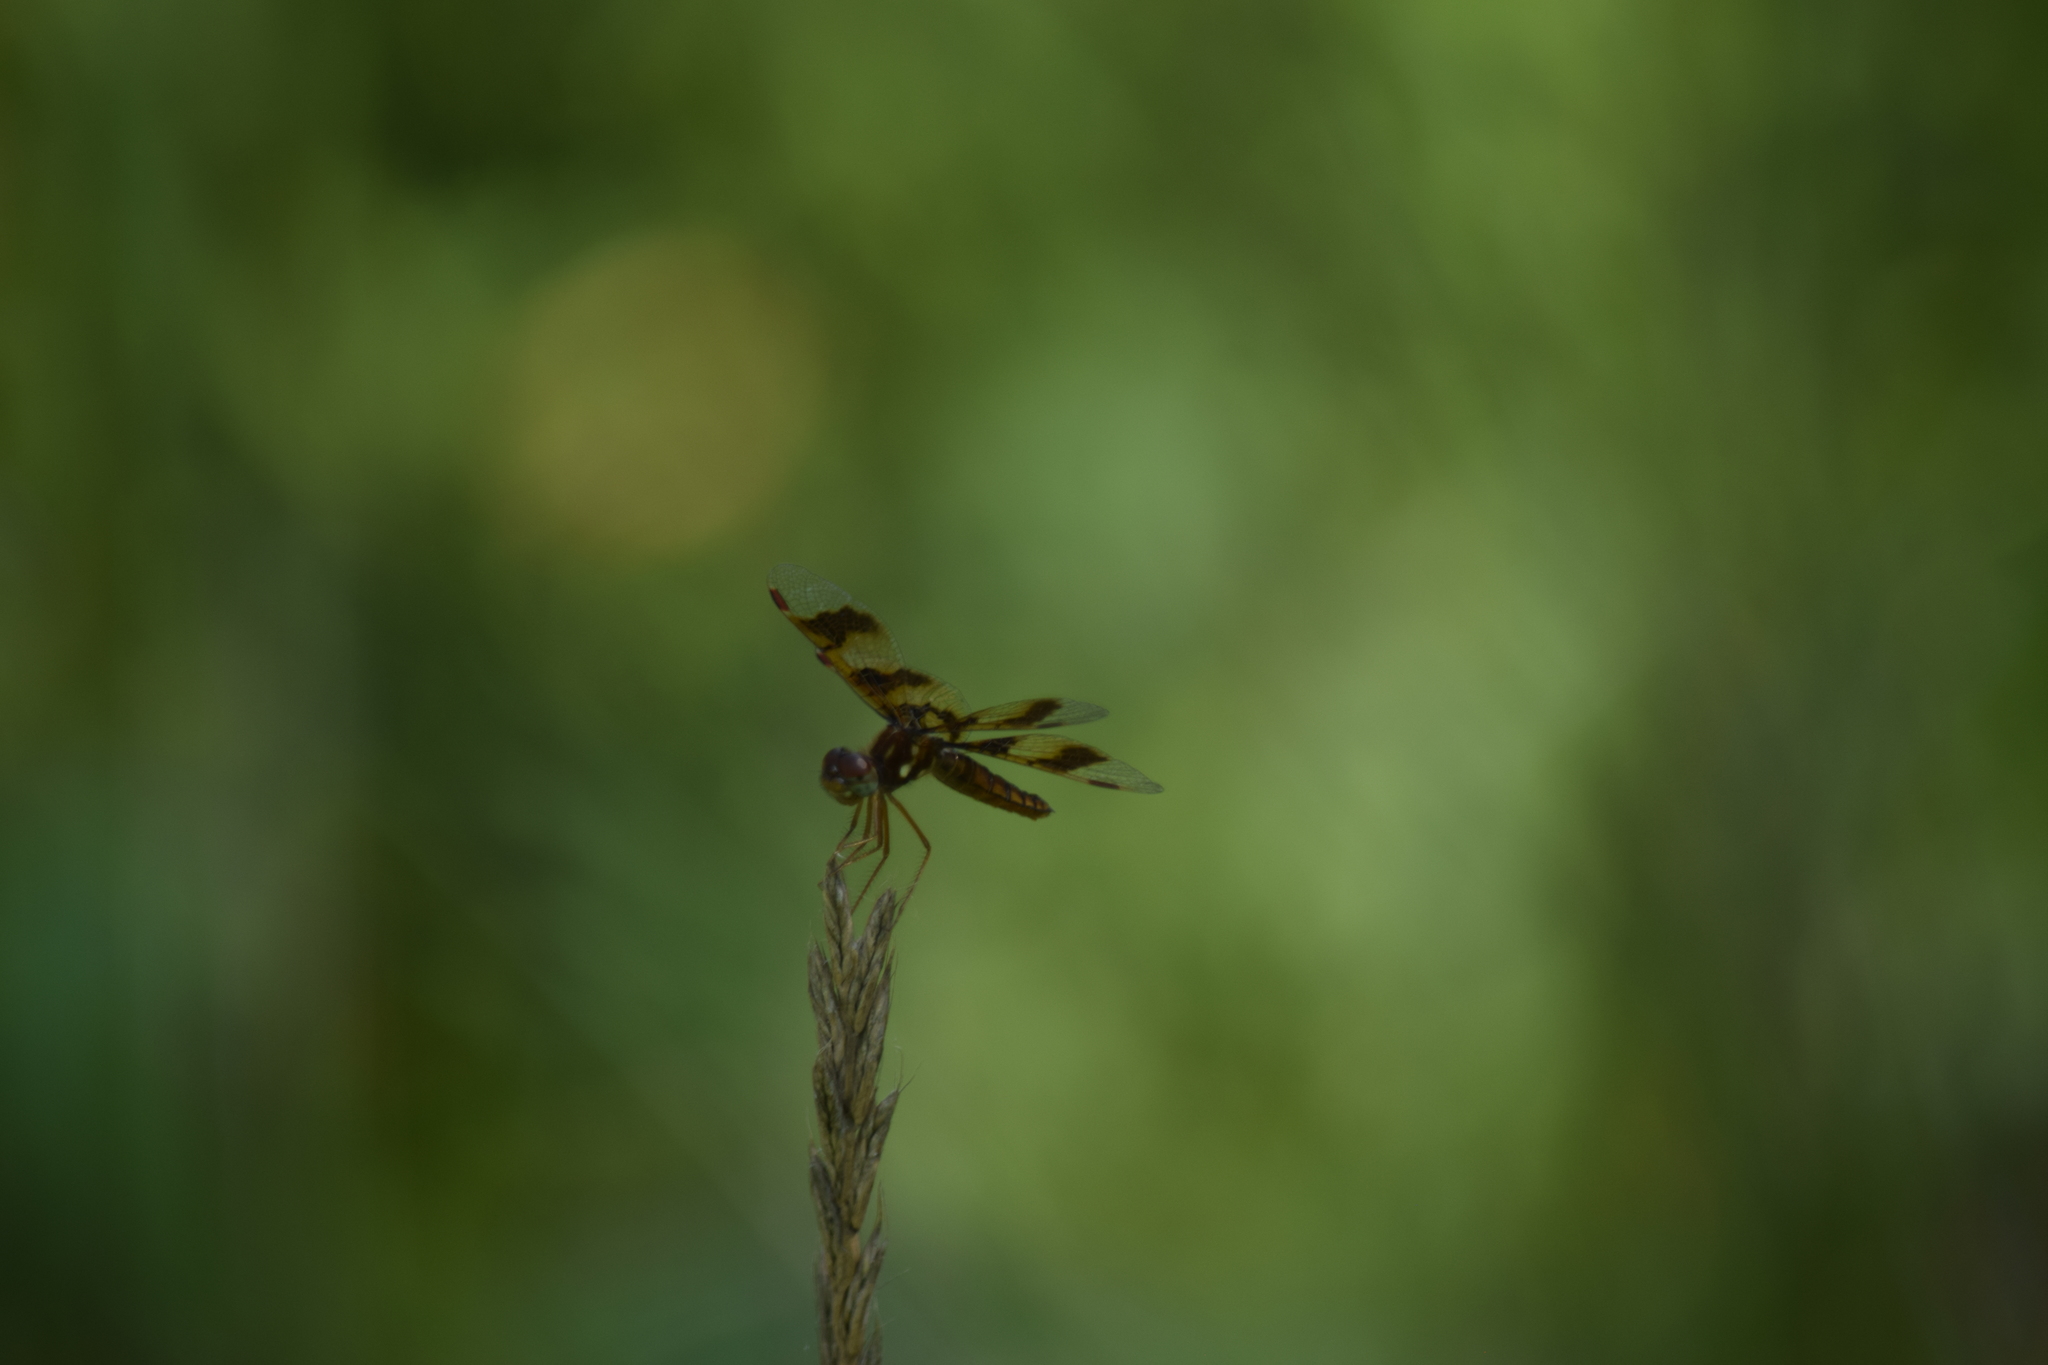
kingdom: Animalia
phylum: Arthropoda
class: Insecta
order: Odonata
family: Libellulidae
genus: Perithemis
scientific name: Perithemis tenera
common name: Eastern amberwing
